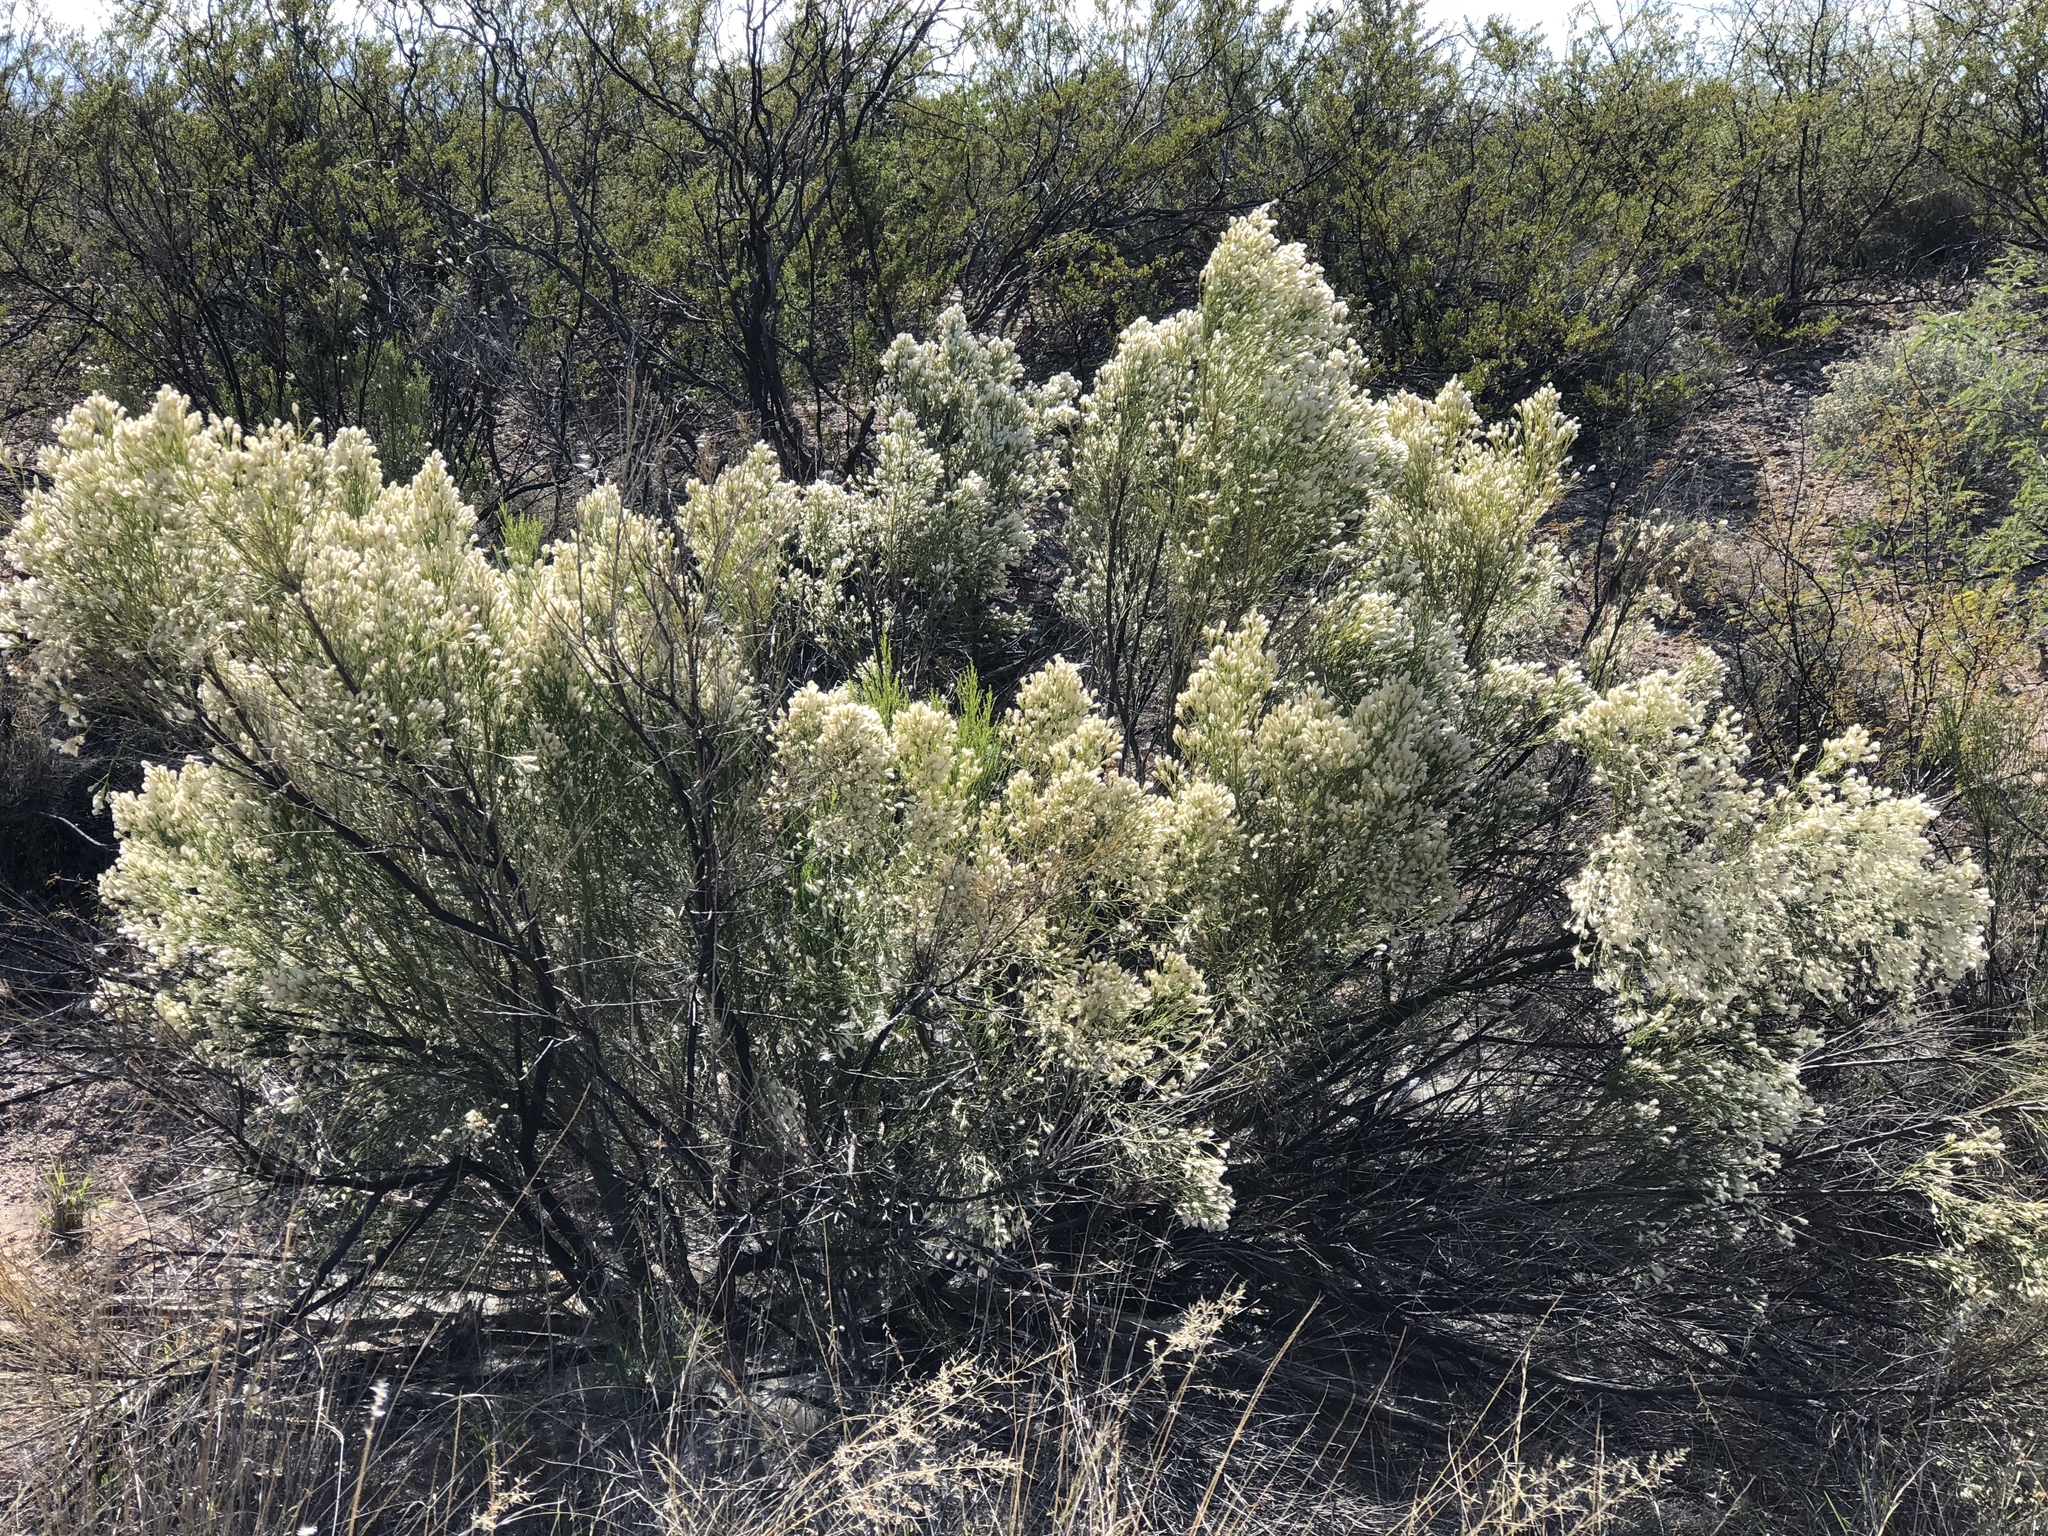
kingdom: Plantae
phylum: Tracheophyta
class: Magnoliopsida
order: Asterales
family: Asteraceae
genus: Baccharis
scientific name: Baccharis sarothroides
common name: Desert-broom
